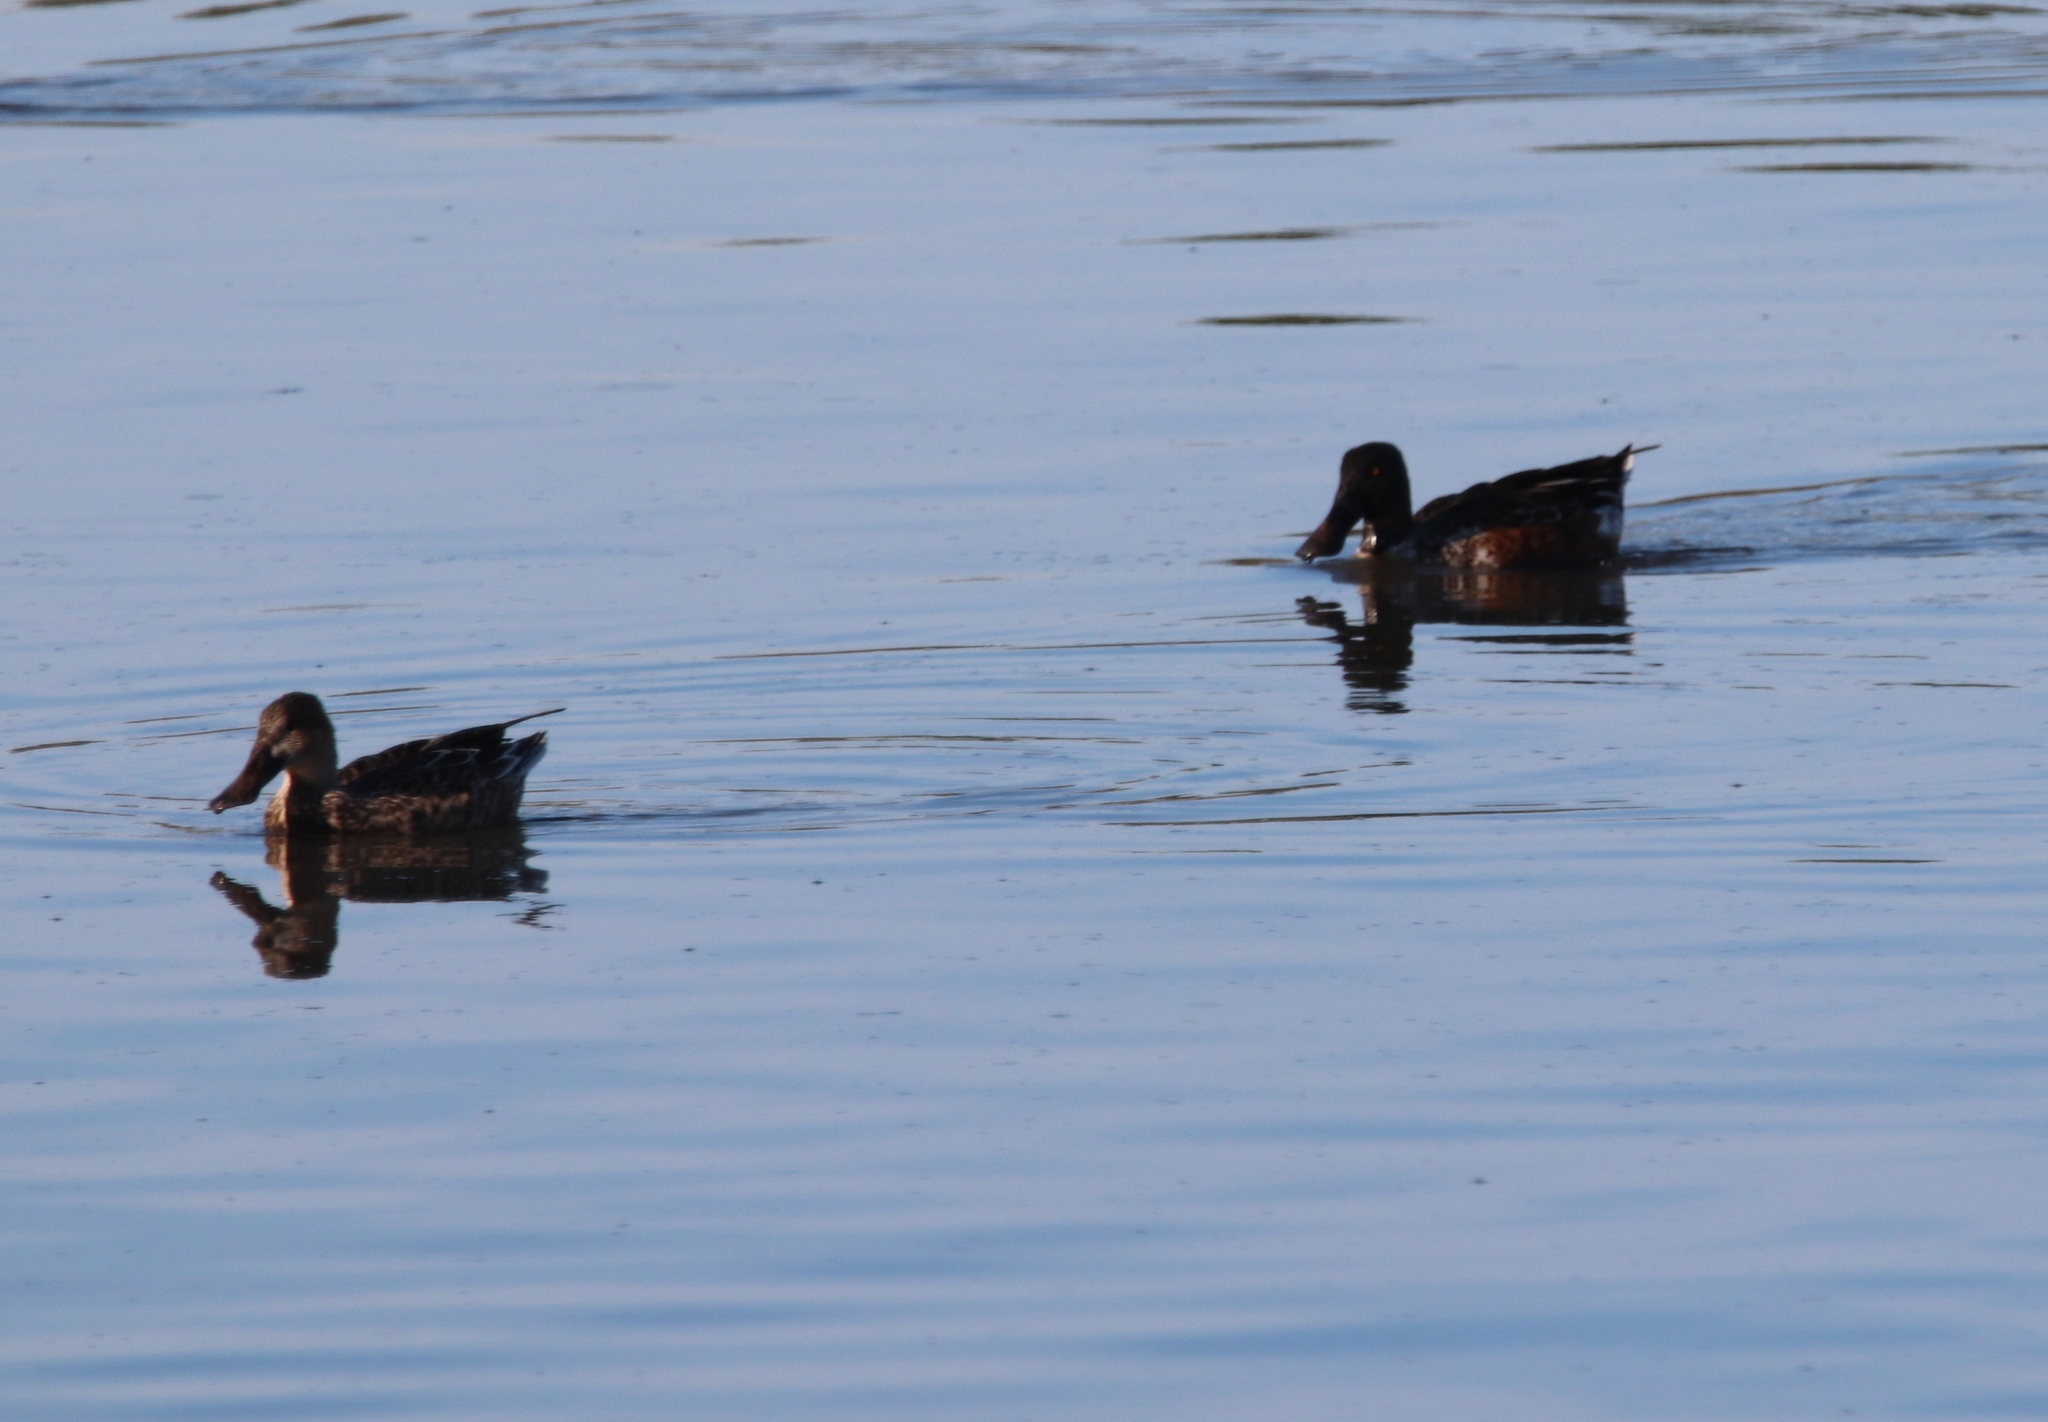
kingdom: Animalia
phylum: Chordata
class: Aves
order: Anseriformes
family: Anatidae
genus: Spatula
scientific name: Spatula clypeata
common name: Northern shoveler
